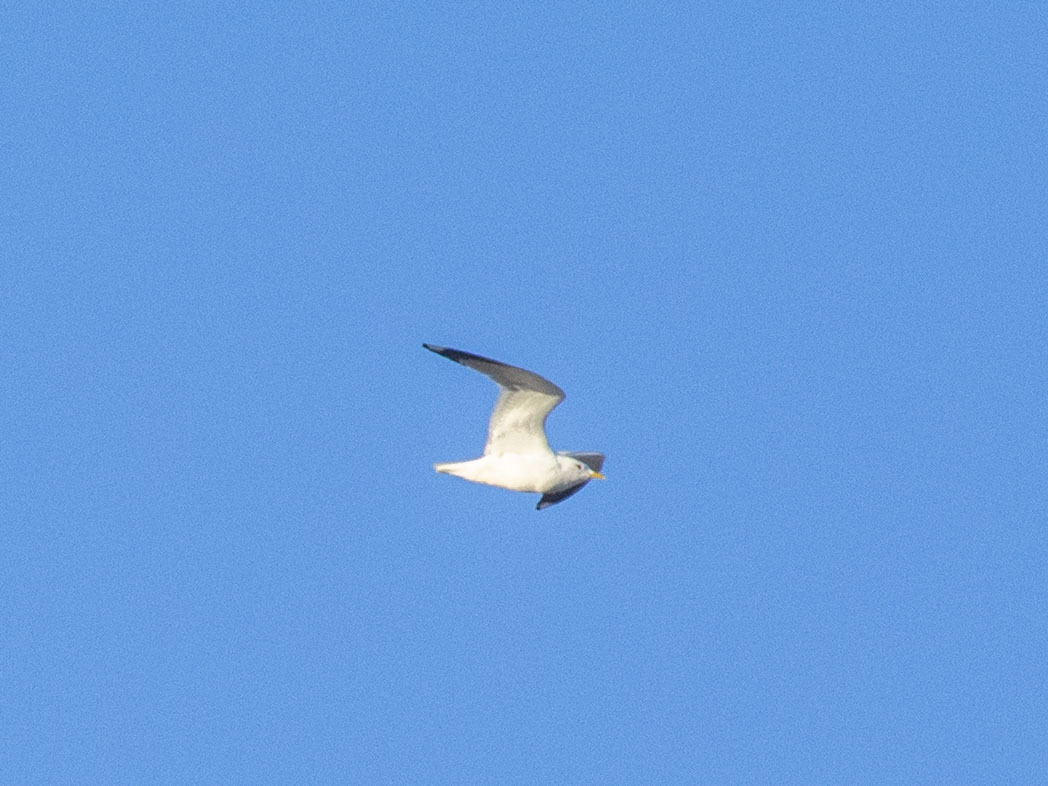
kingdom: Animalia
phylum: Chordata
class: Aves
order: Charadriiformes
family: Laridae
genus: Larus
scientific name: Larus canus
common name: Mew gull
